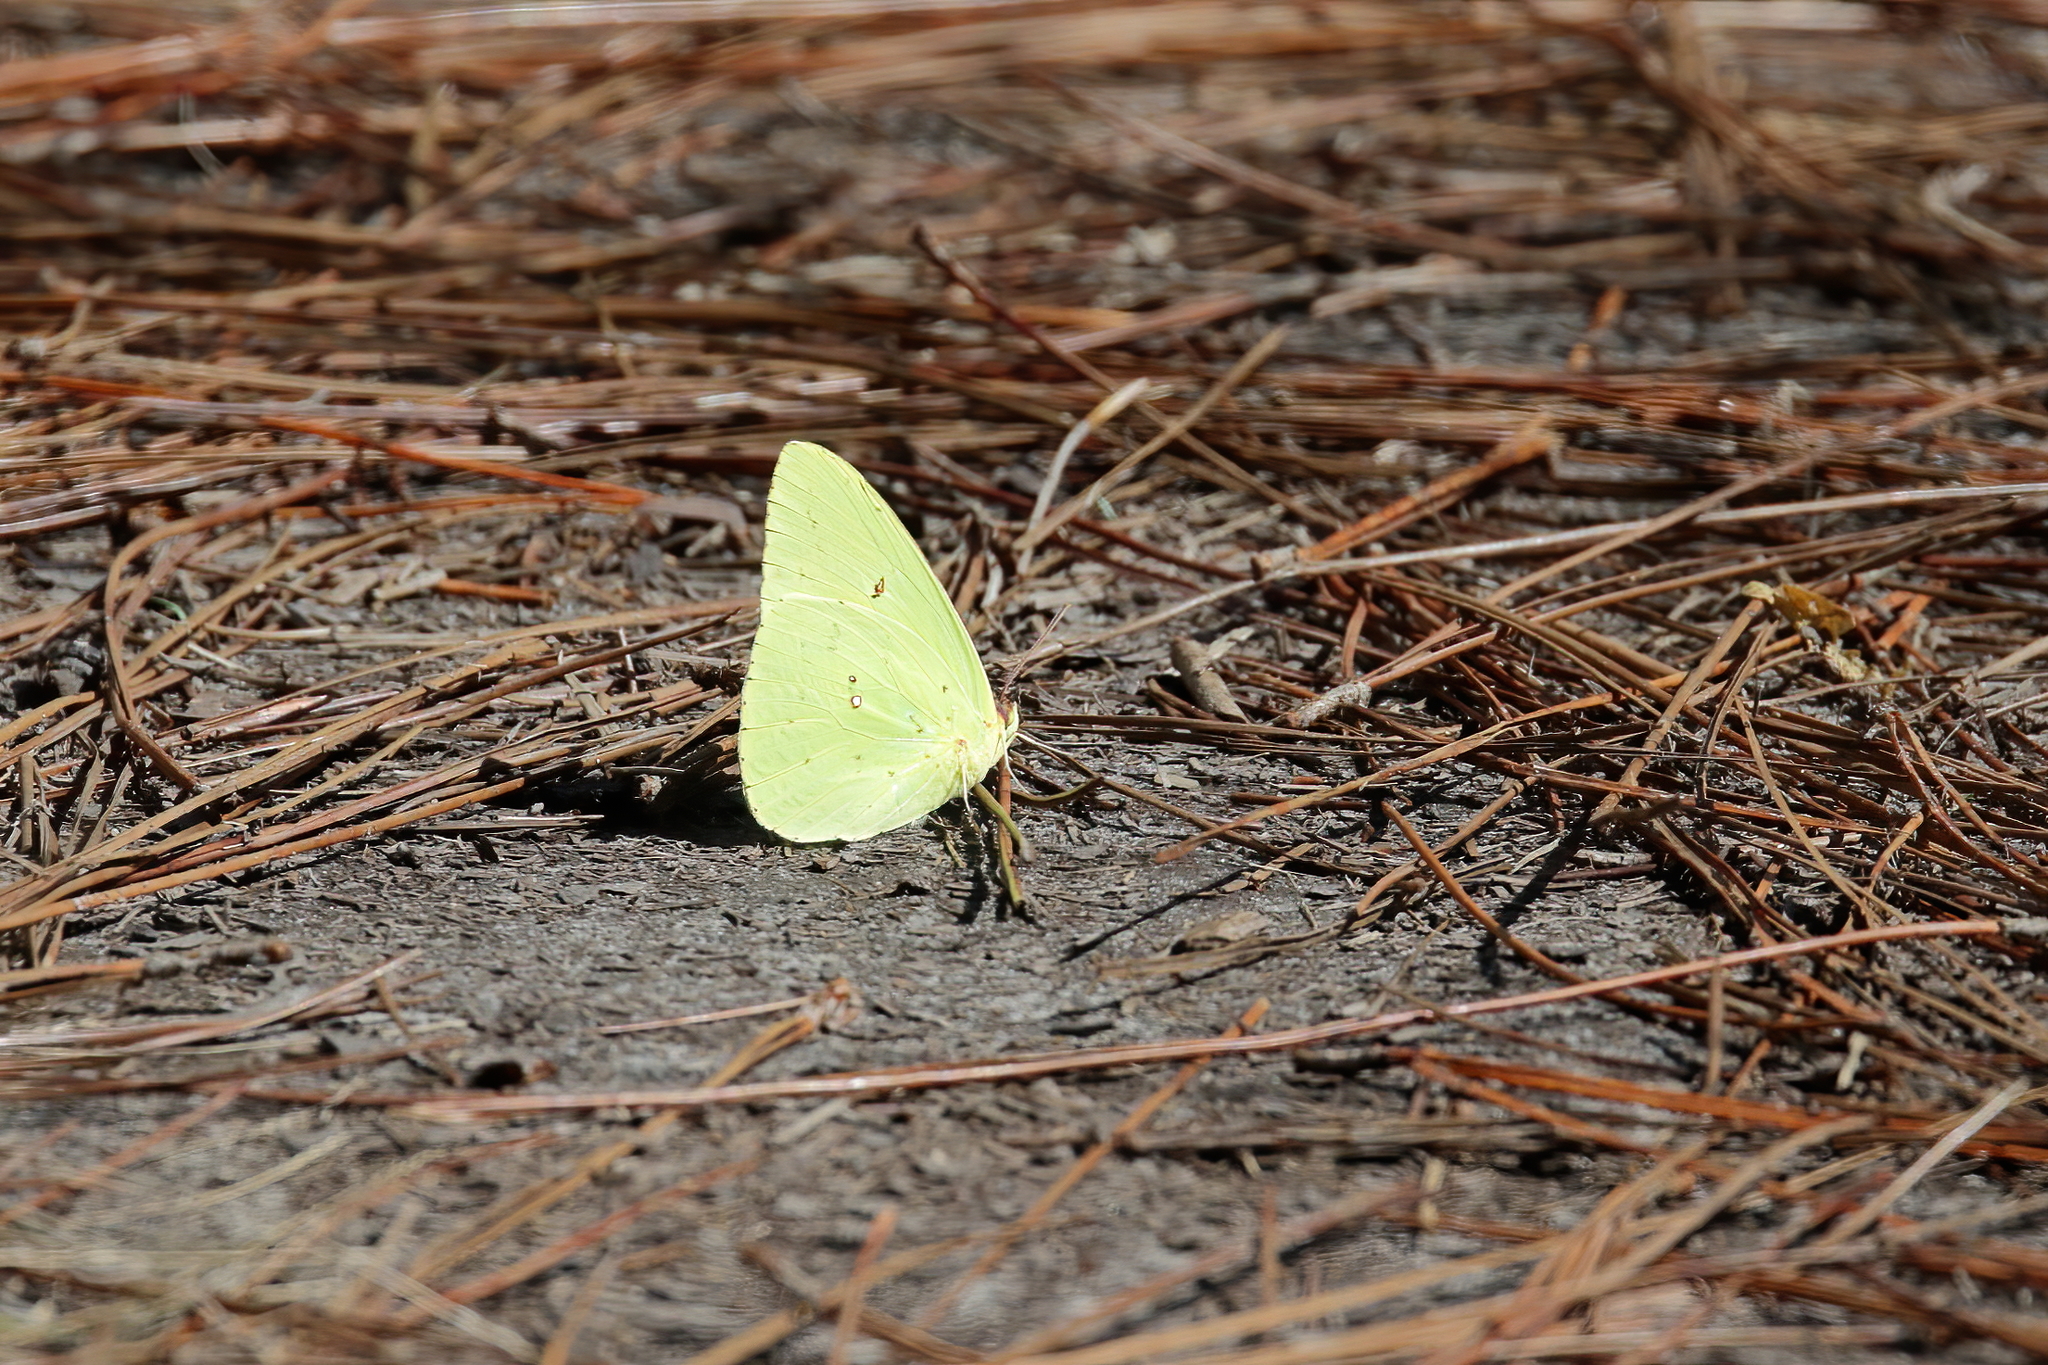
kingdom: Animalia
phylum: Arthropoda
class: Insecta
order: Lepidoptera
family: Pieridae
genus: Phoebis
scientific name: Phoebis sennae
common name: Cloudless sulphur
